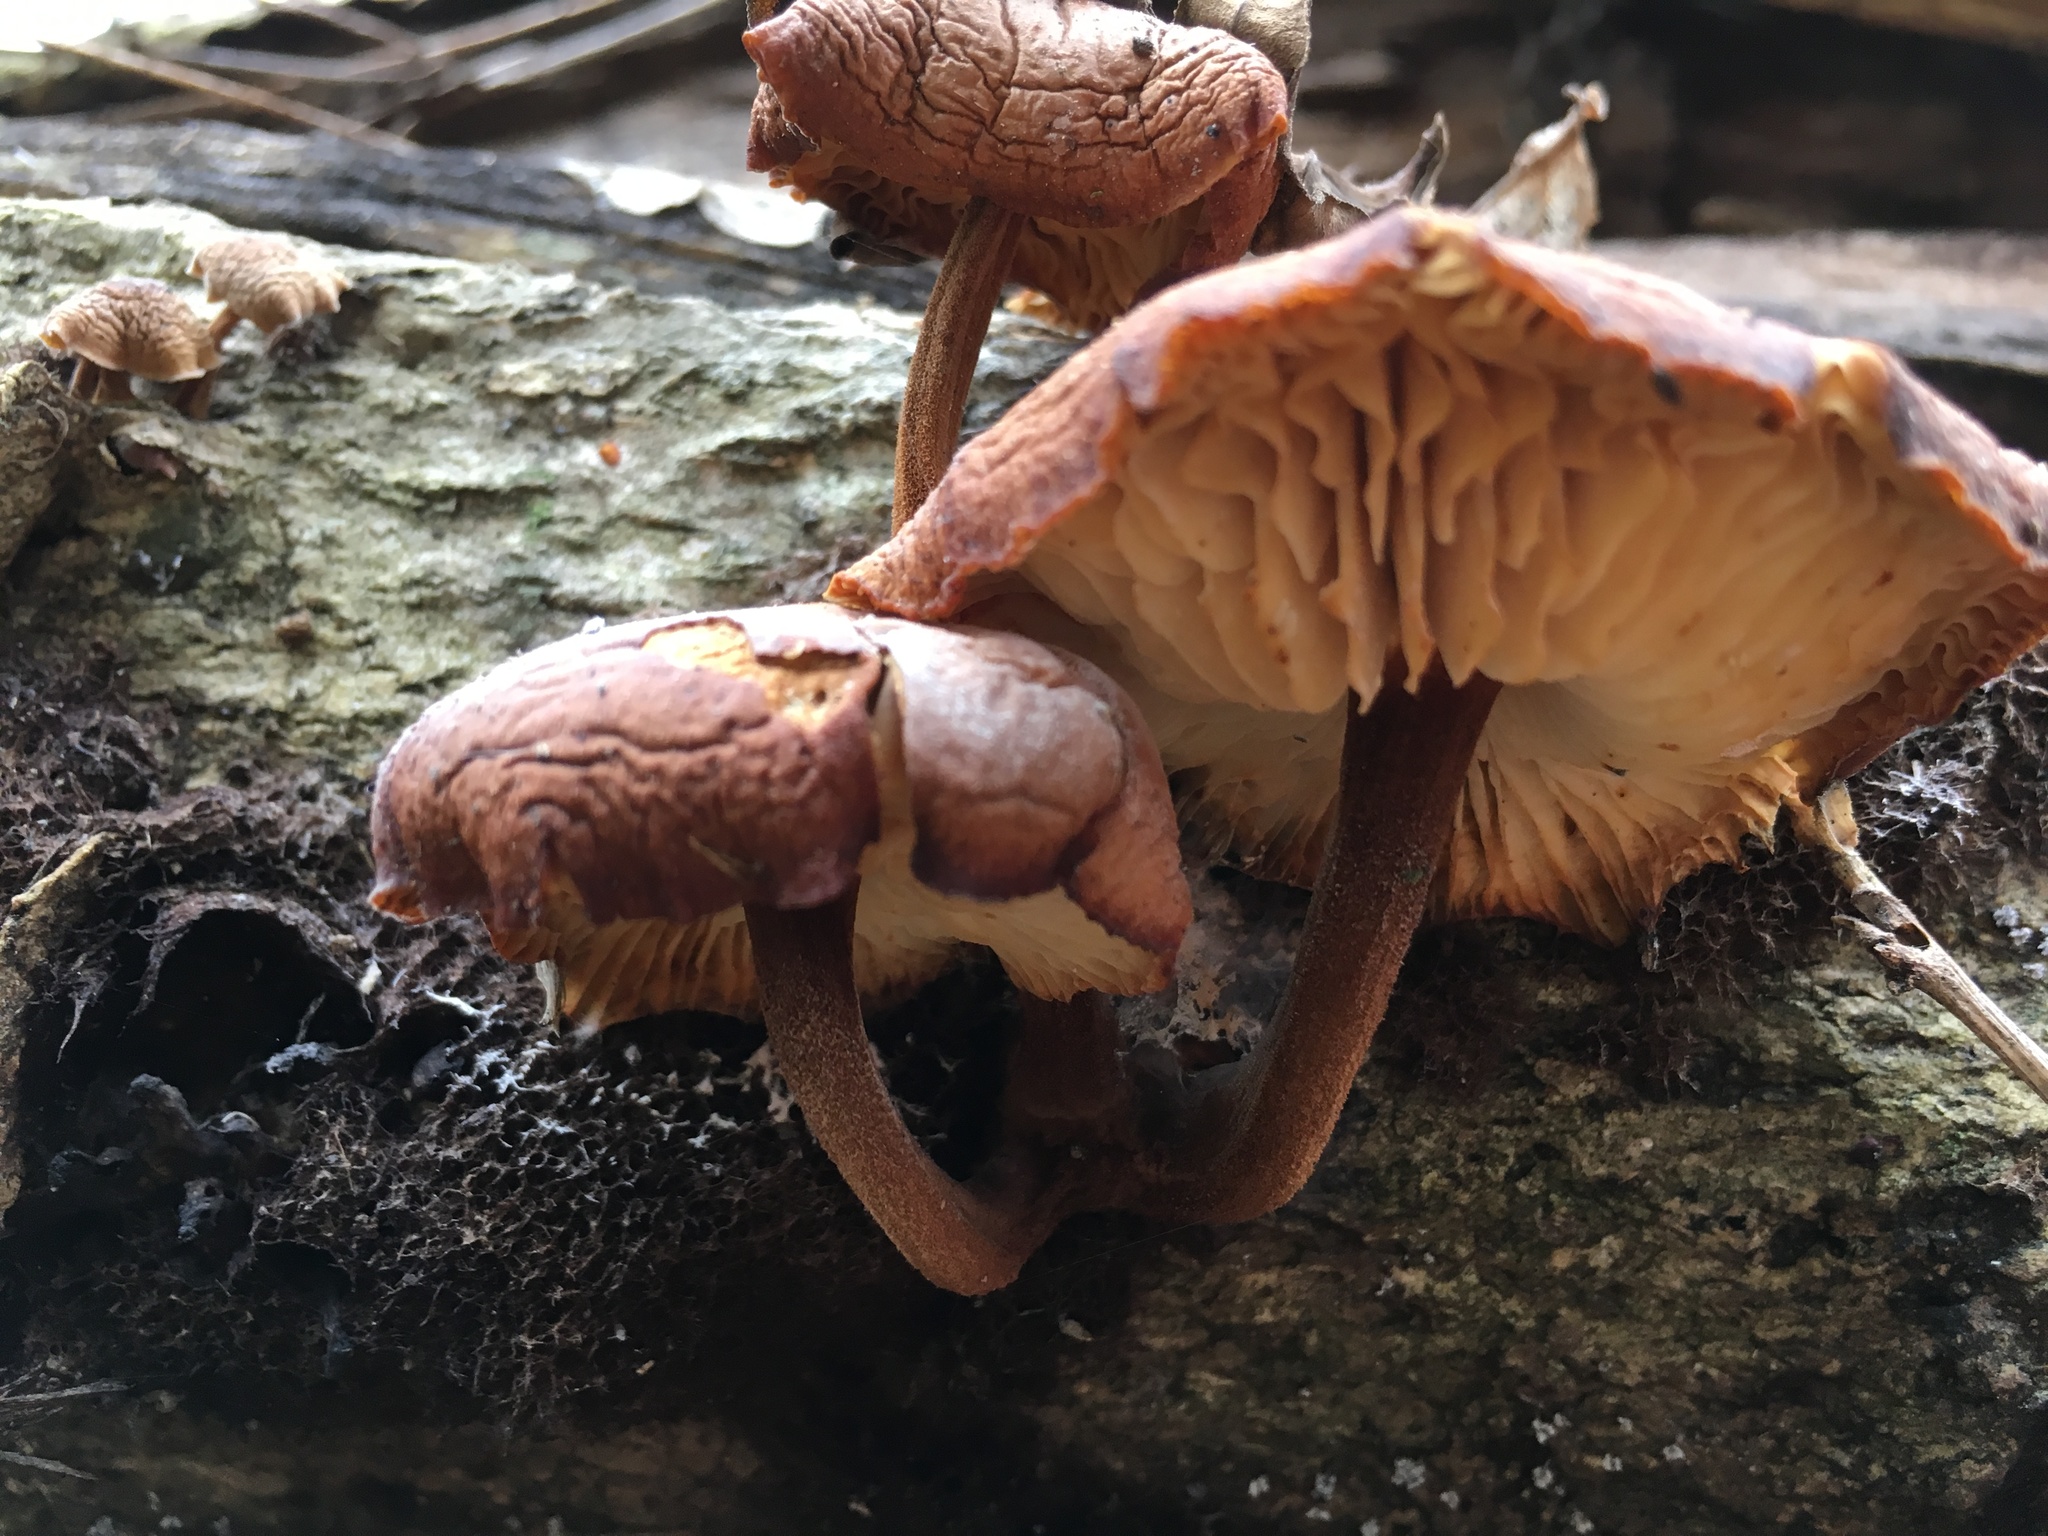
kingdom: Fungi
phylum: Basidiomycota
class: Agaricomycetes
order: Agaricales
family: Physalacriaceae
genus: Flammulina
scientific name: Flammulina velutipes
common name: Velvet shank
